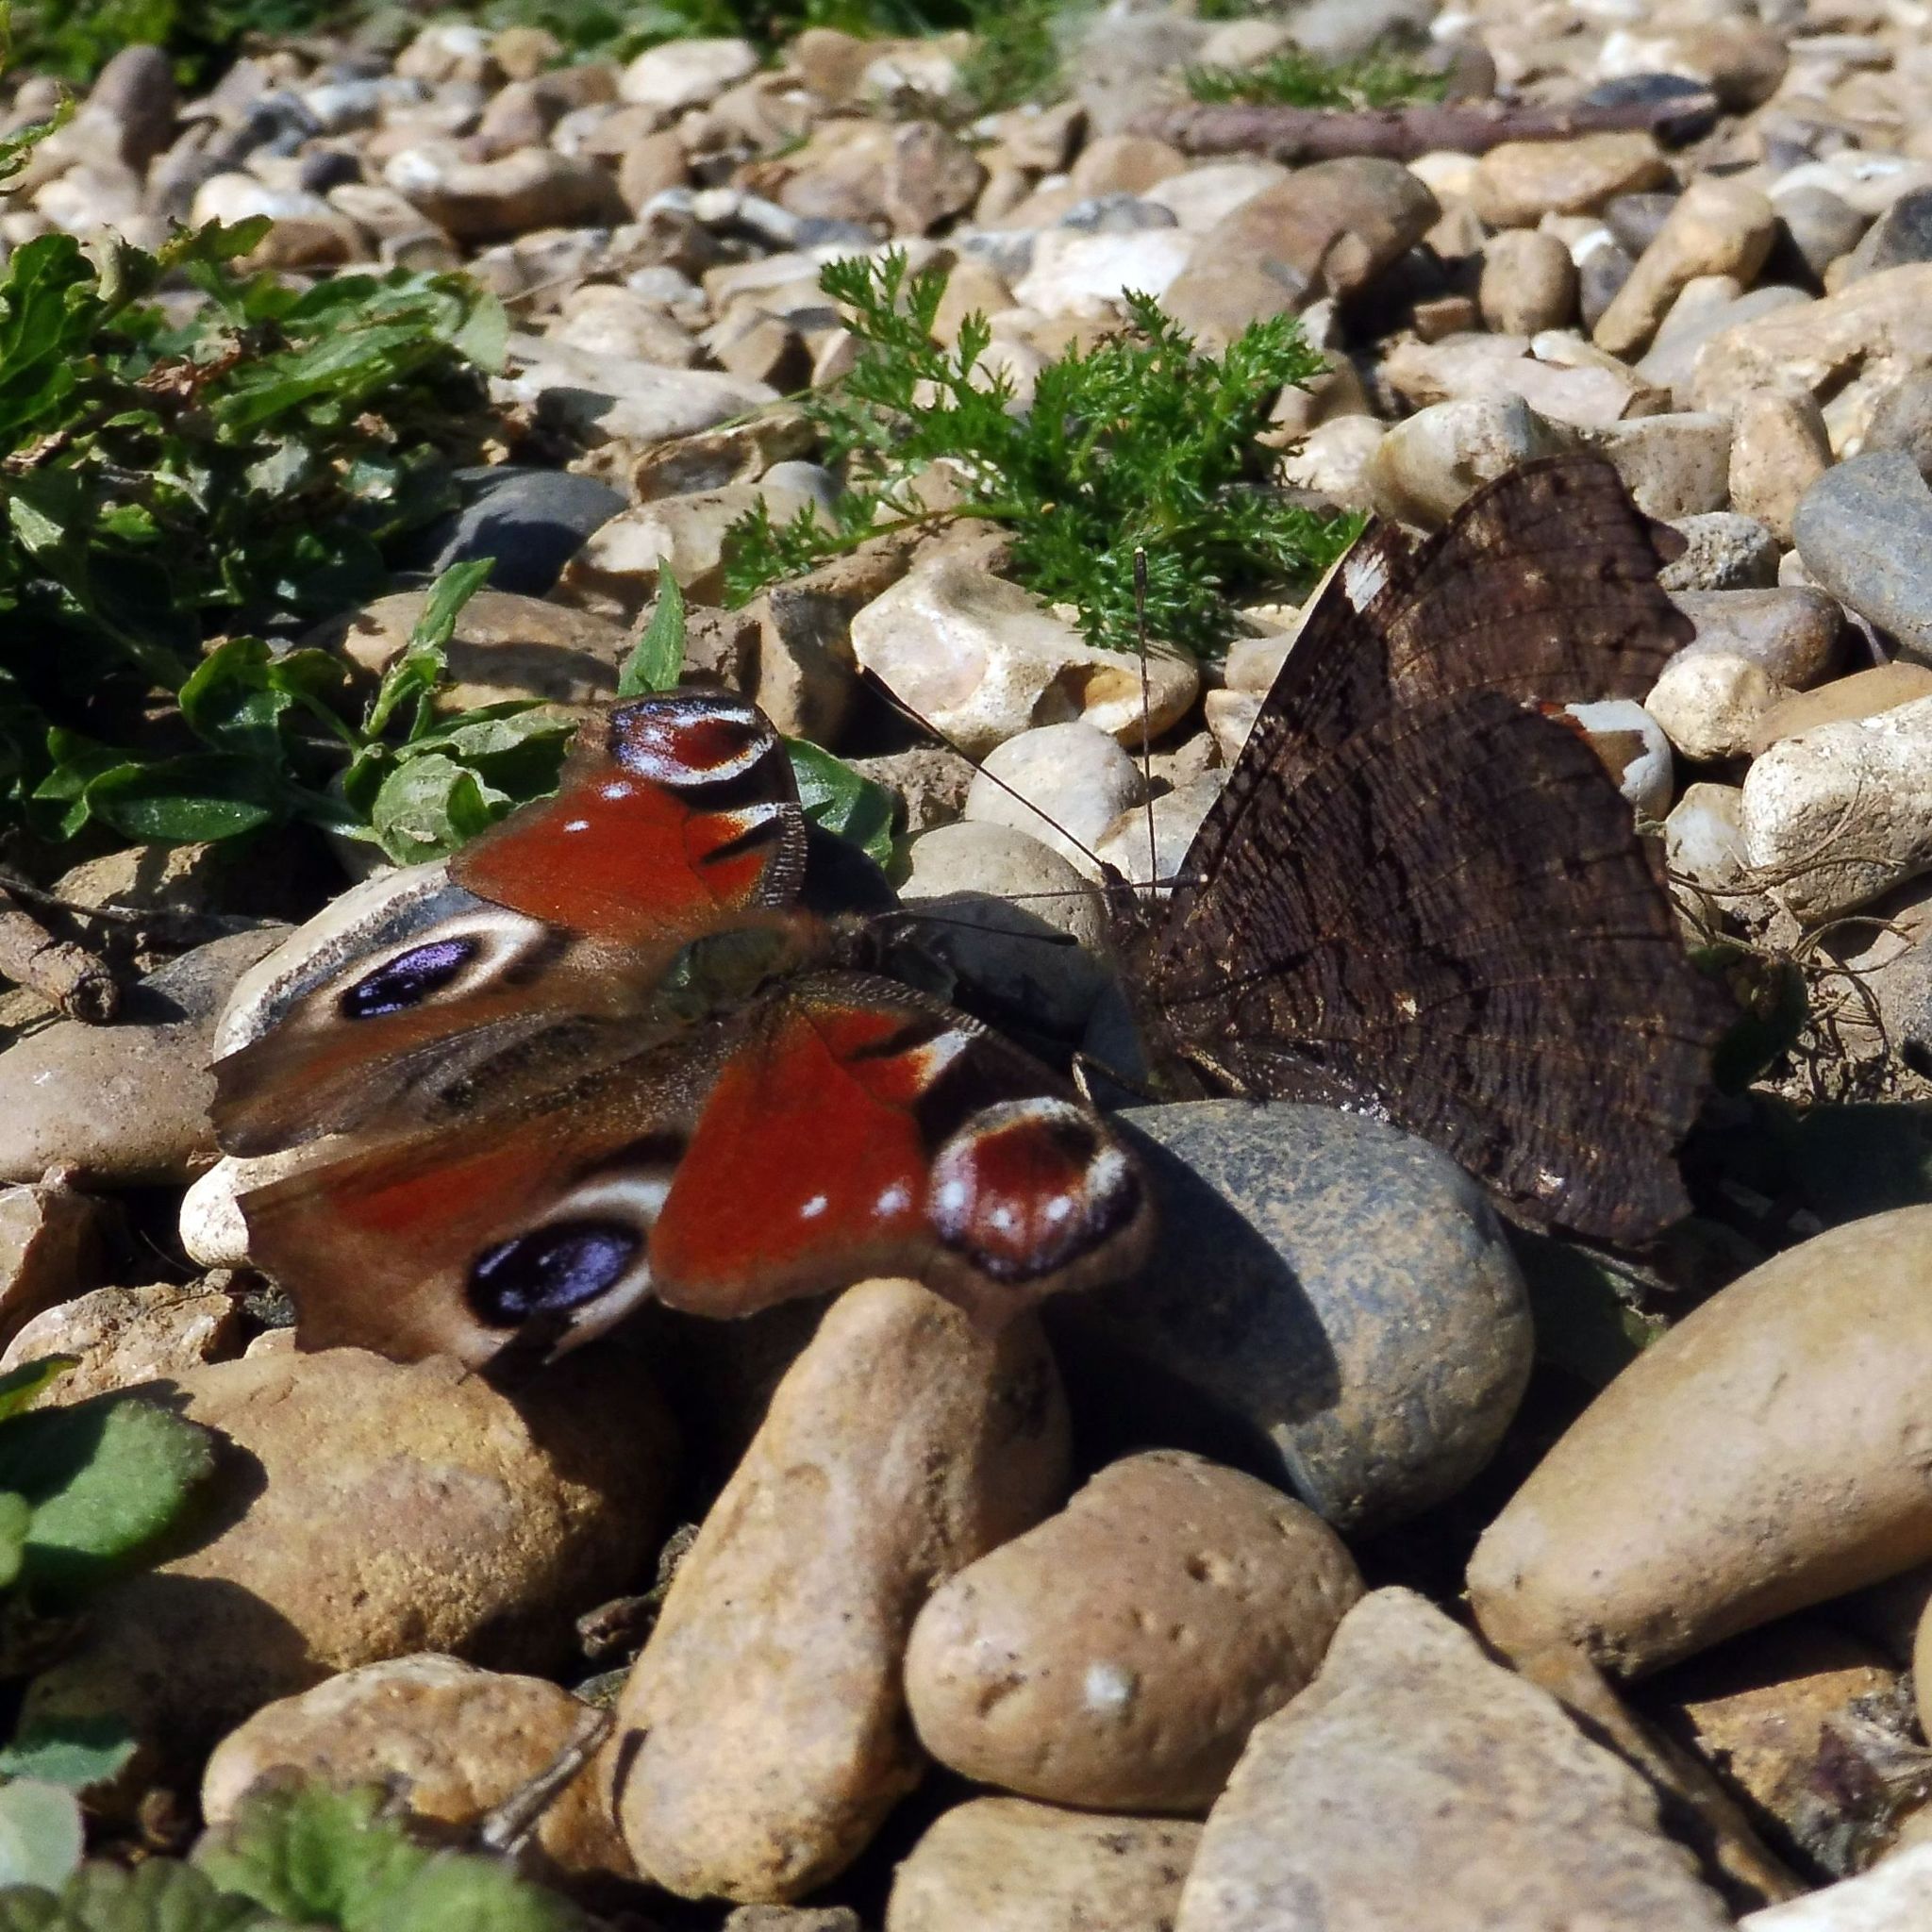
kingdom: Animalia
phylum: Arthropoda
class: Insecta
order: Lepidoptera
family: Nymphalidae
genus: Aglais
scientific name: Aglais io
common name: Peacock
